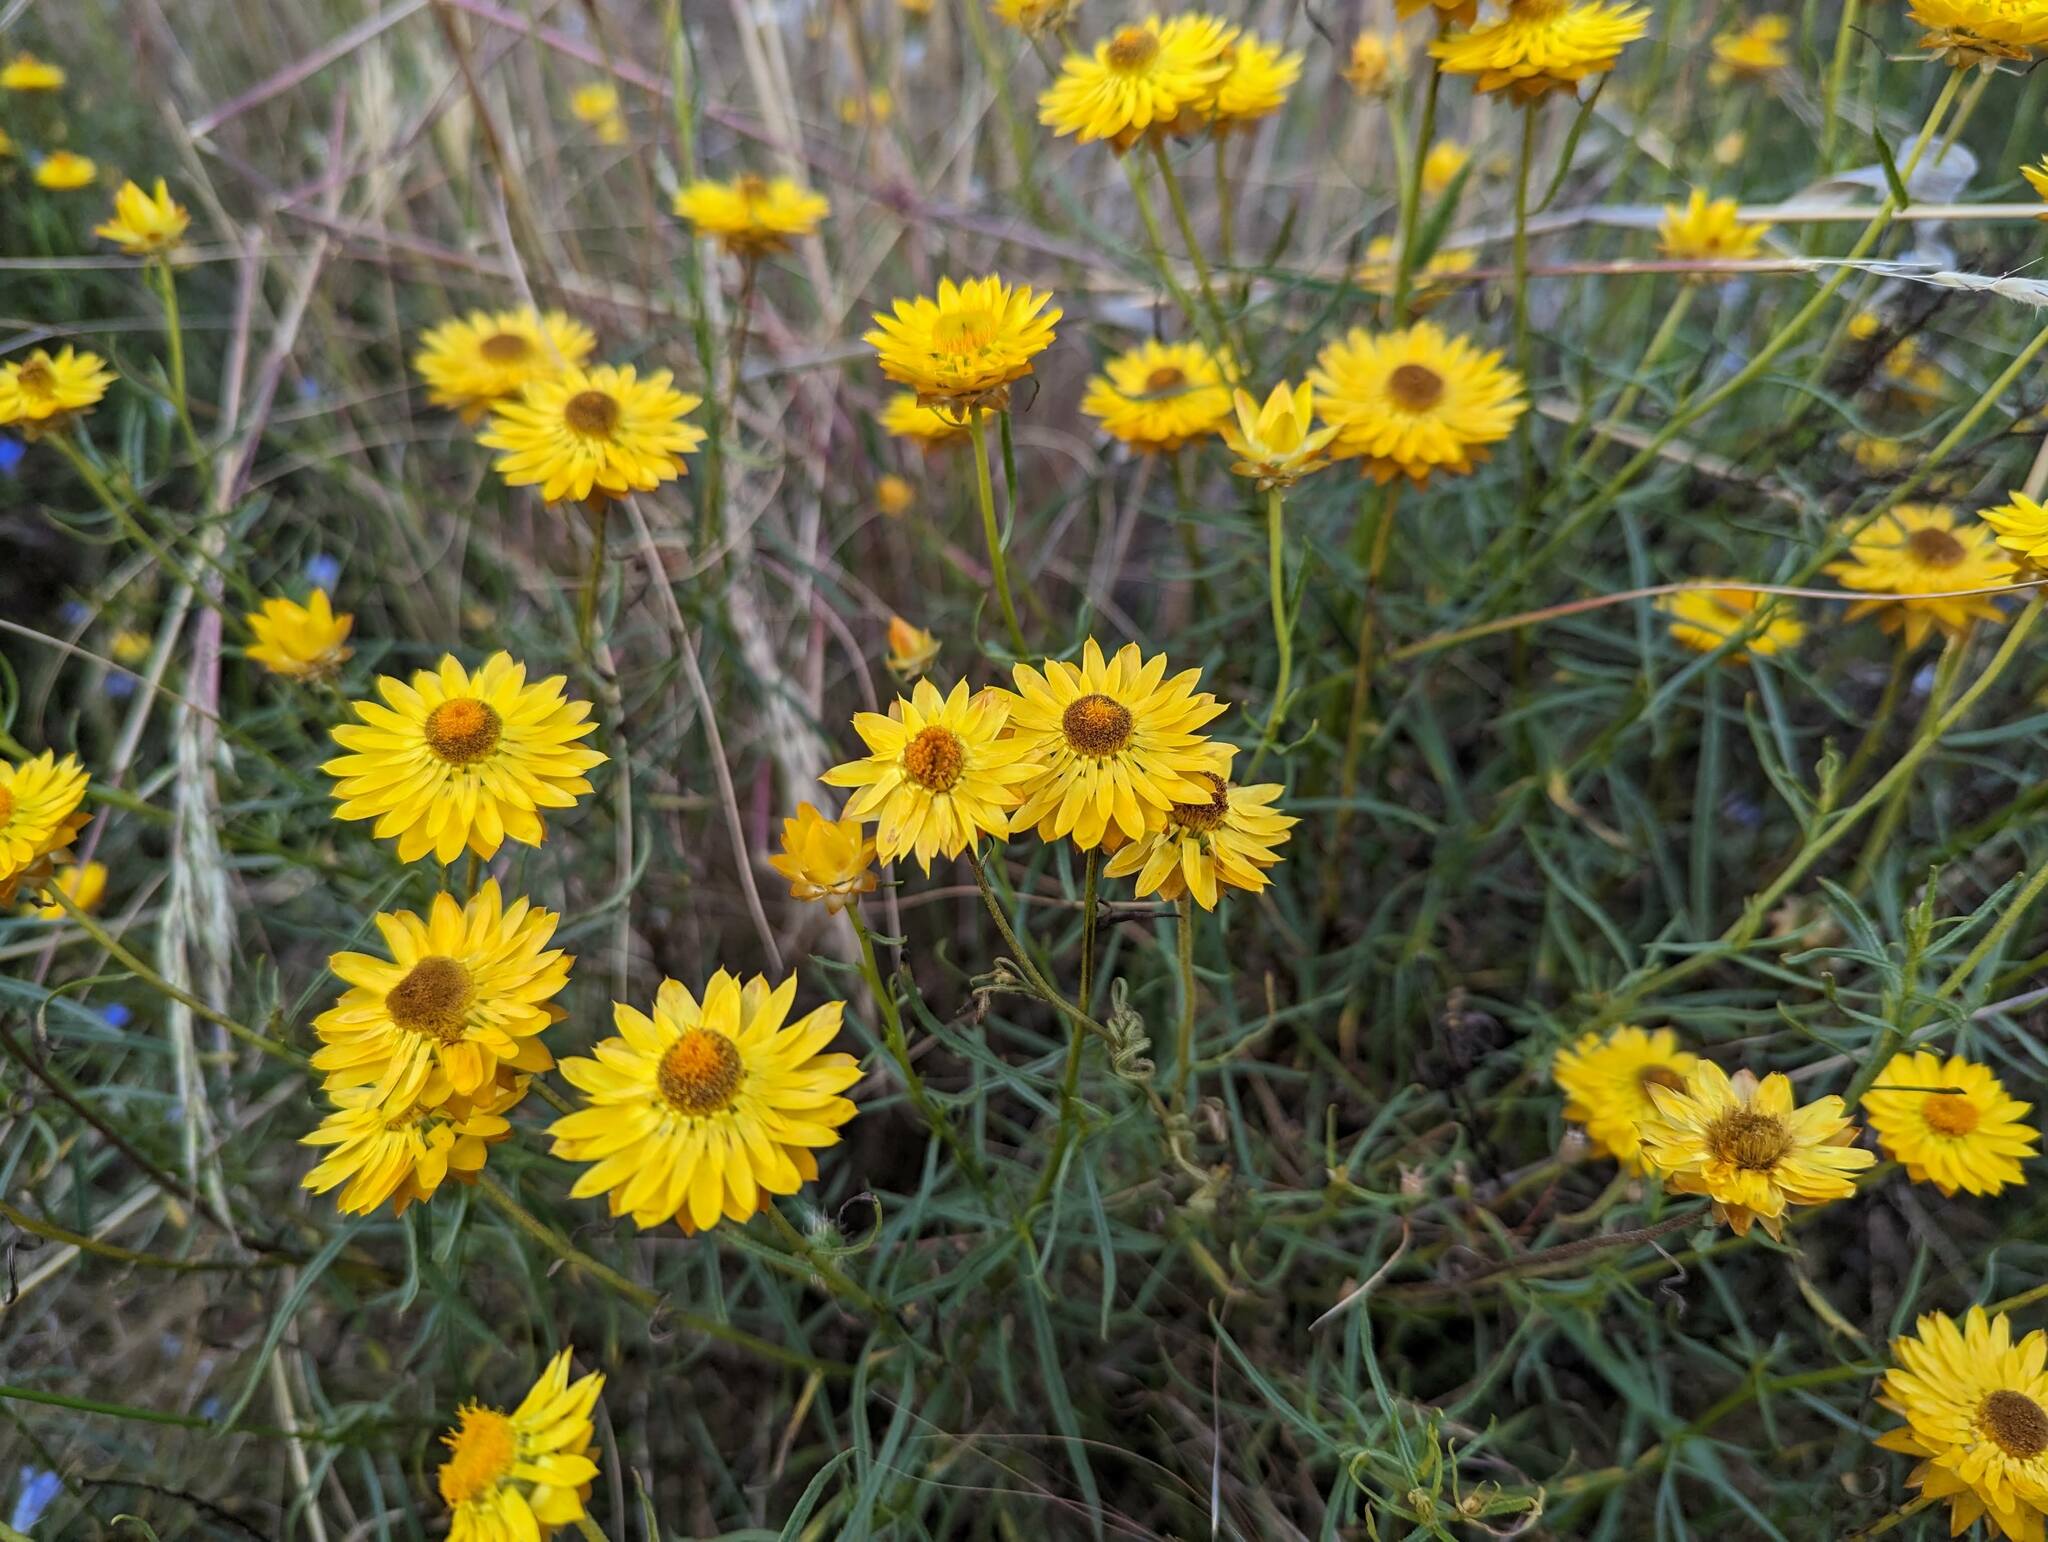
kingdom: Plantae
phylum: Tracheophyta
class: Magnoliopsida
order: Asterales
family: Asteraceae
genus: Xerochrysum
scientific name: Xerochrysum viscosum
